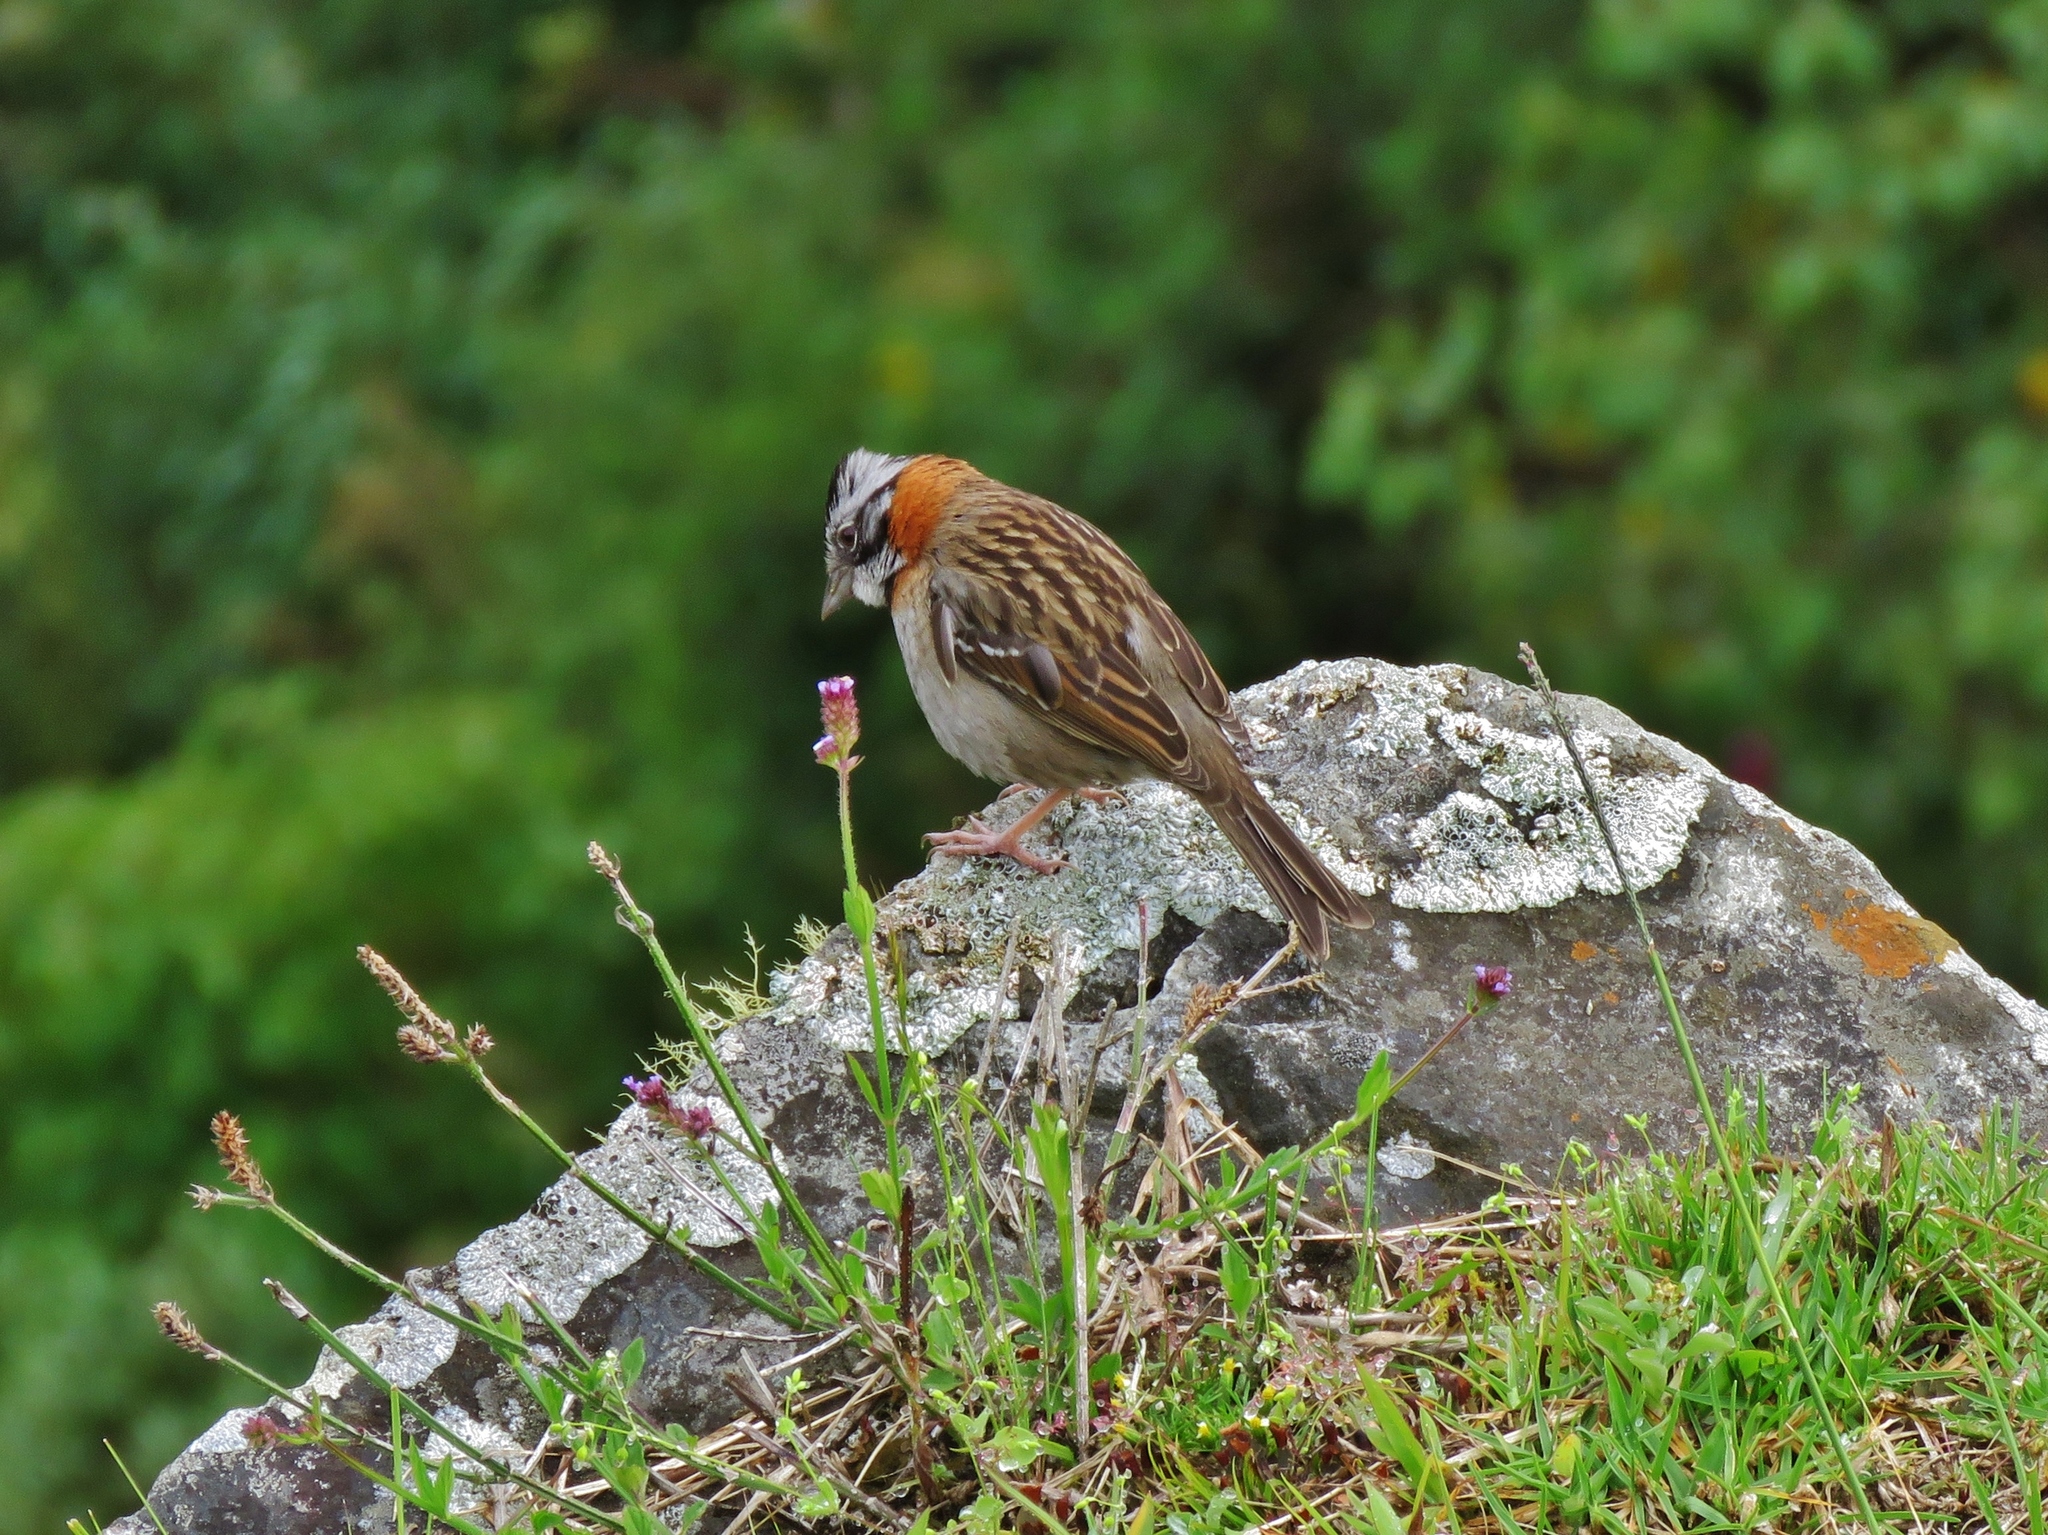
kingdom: Animalia
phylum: Chordata
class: Aves
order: Passeriformes
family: Passerellidae
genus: Zonotrichia
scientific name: Zonotrichia capensis
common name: Rufous-collared sparrow
